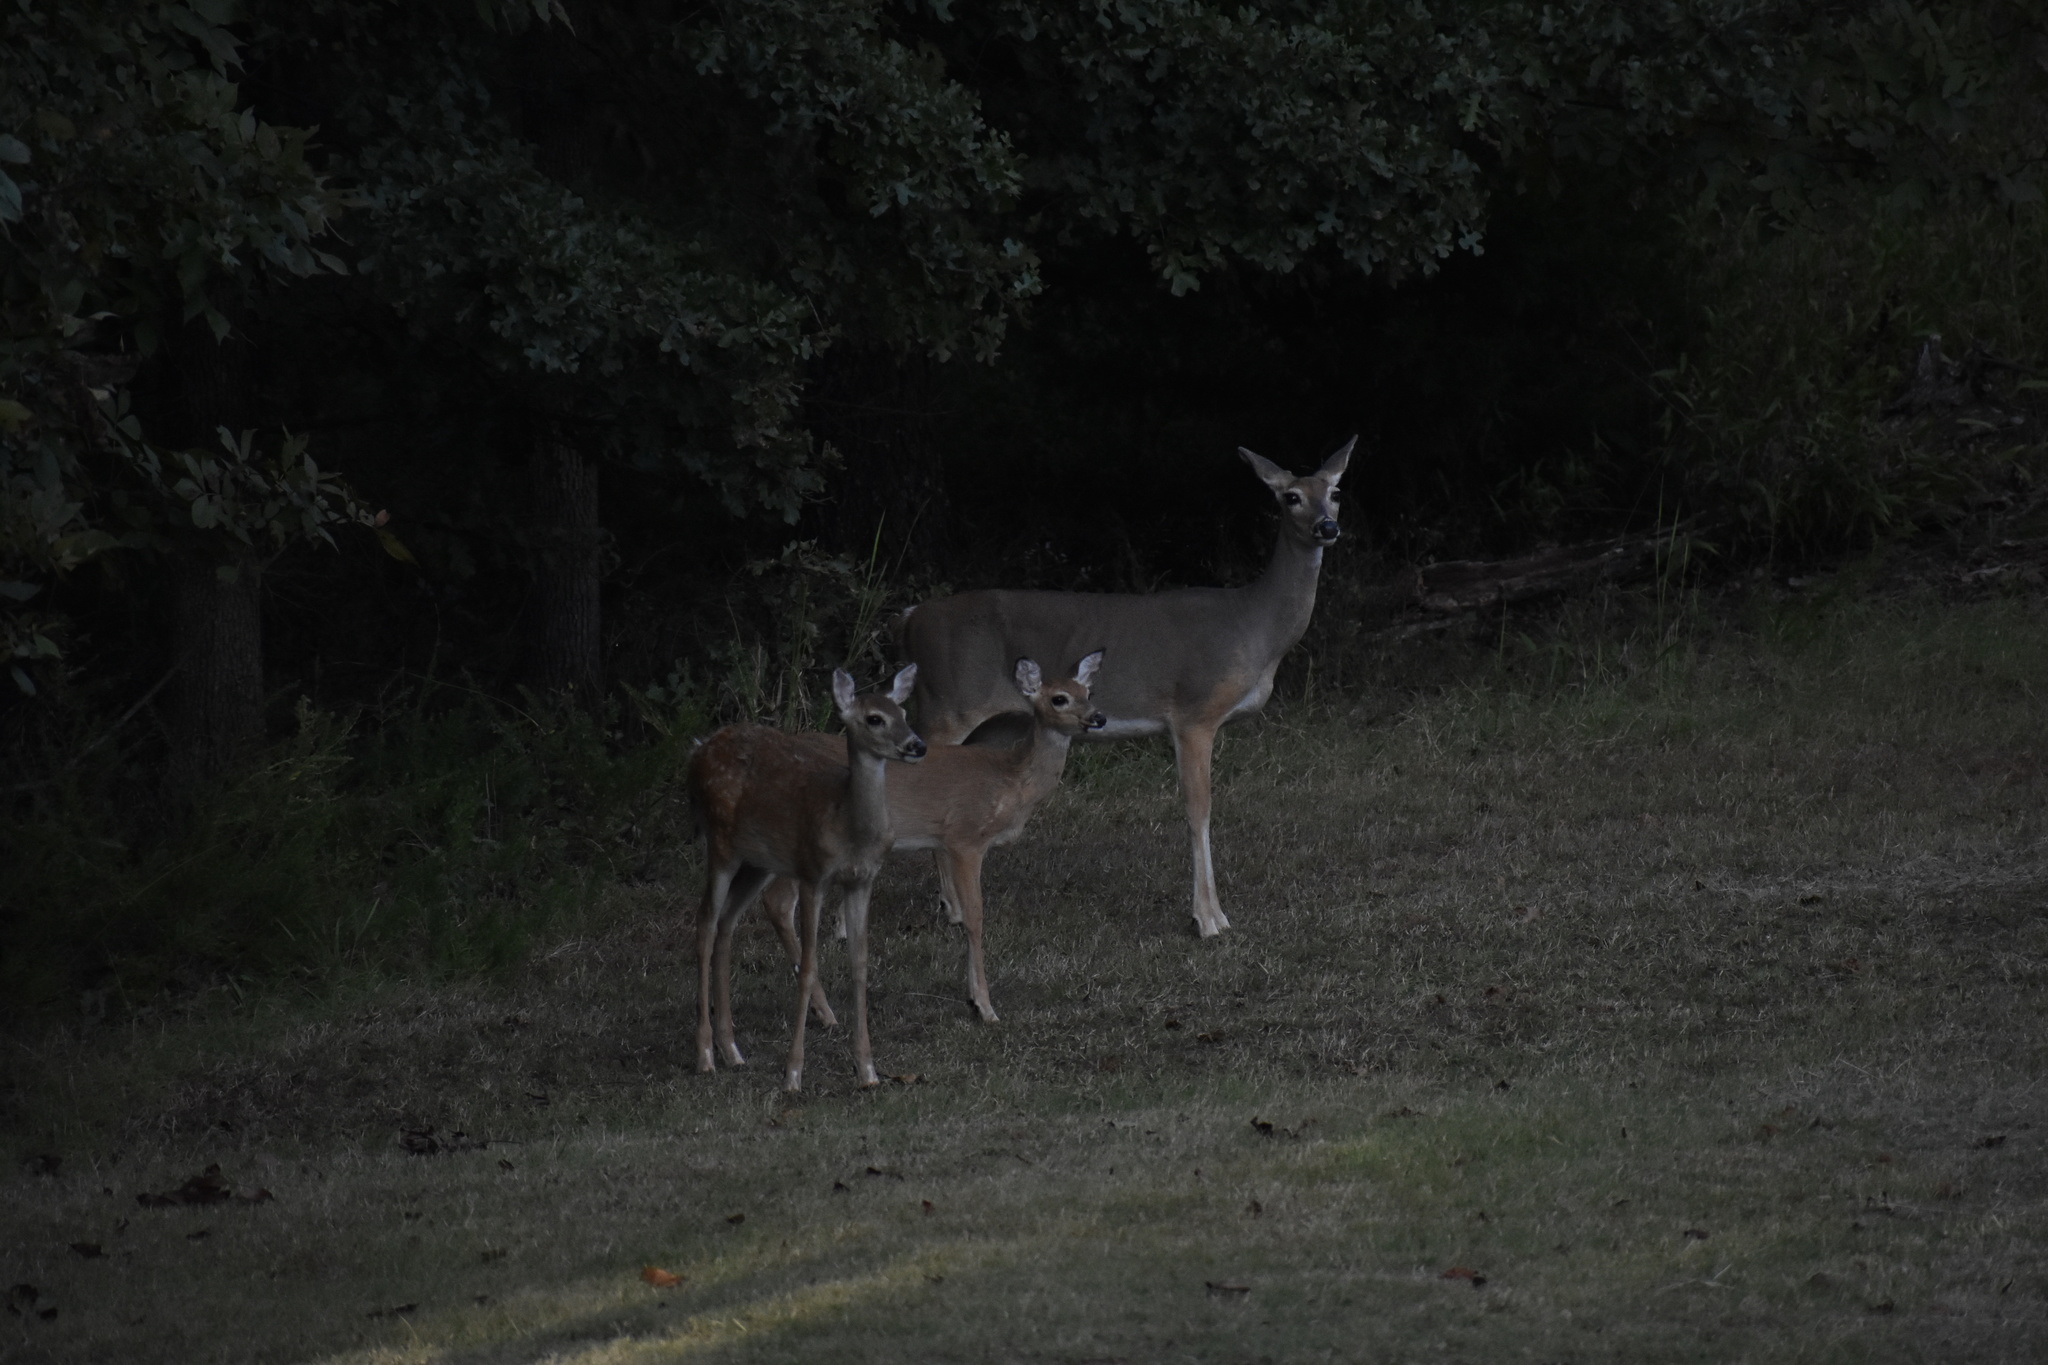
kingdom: Animalia
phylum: Chordata
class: Mammalia
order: Artiodactyla
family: Cervidae
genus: Odocoileus
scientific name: Odocoileus virginianus
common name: White-tailed deer
